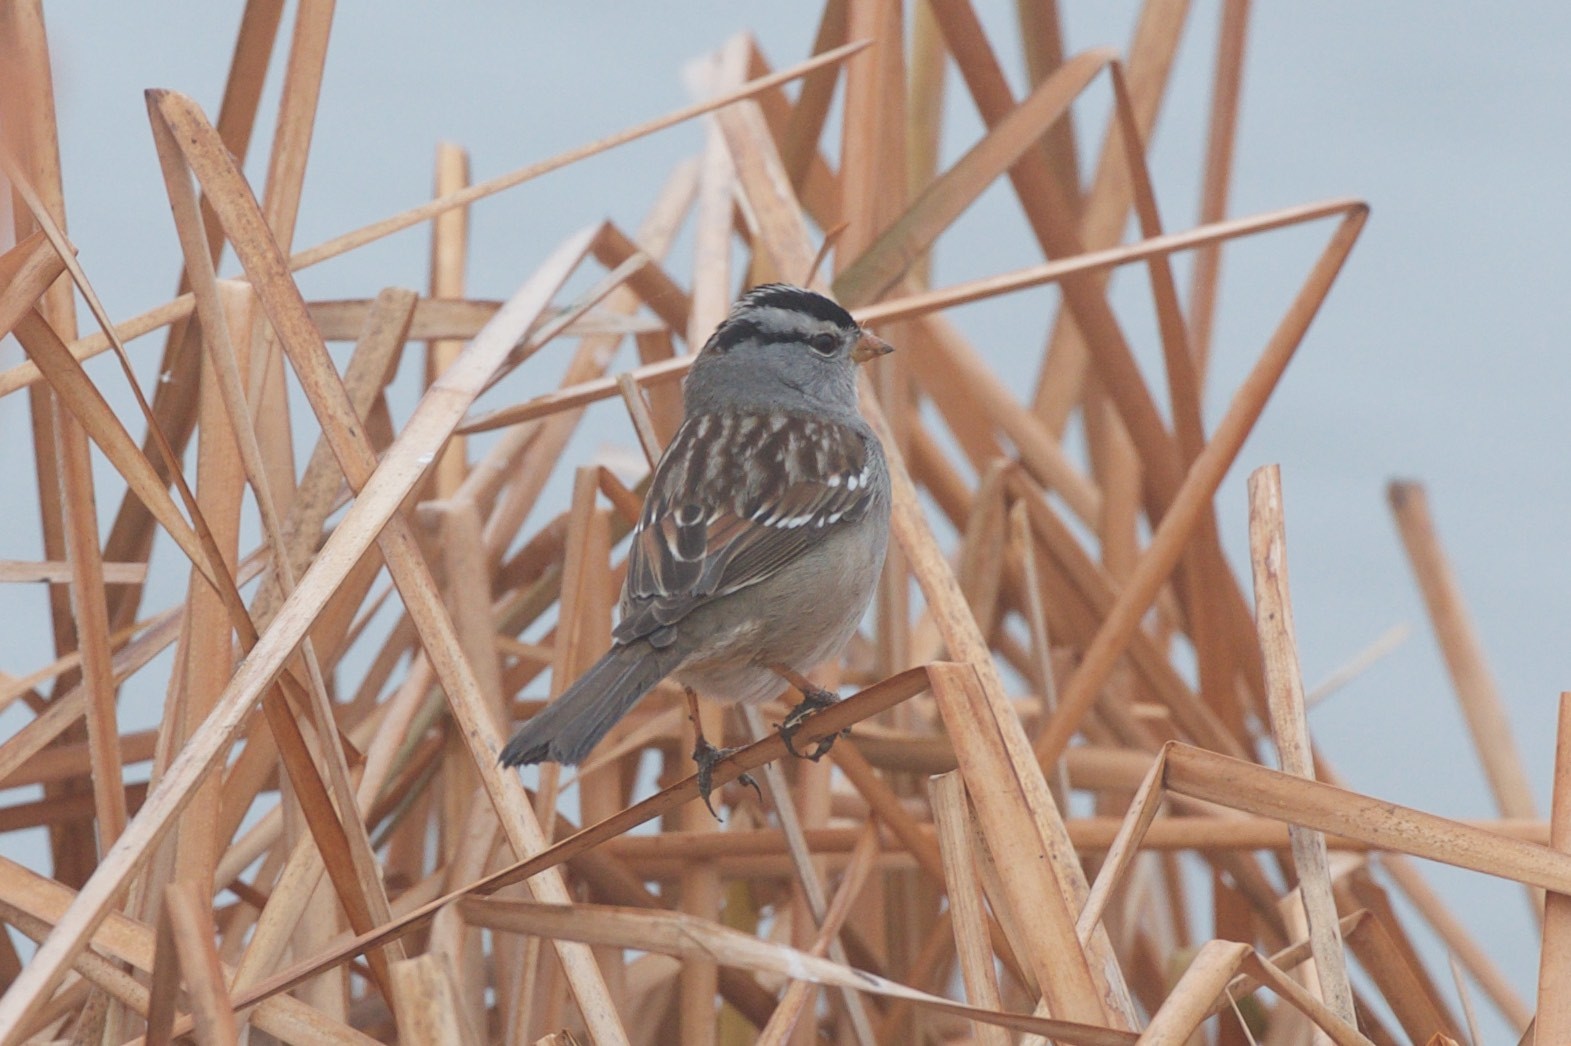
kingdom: Animalia
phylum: Chordata
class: Aves
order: Passeriformes
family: Passerellidae
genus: Zonotrichia
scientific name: Zonotrichia leucophrys
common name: White-crowned sparrow
